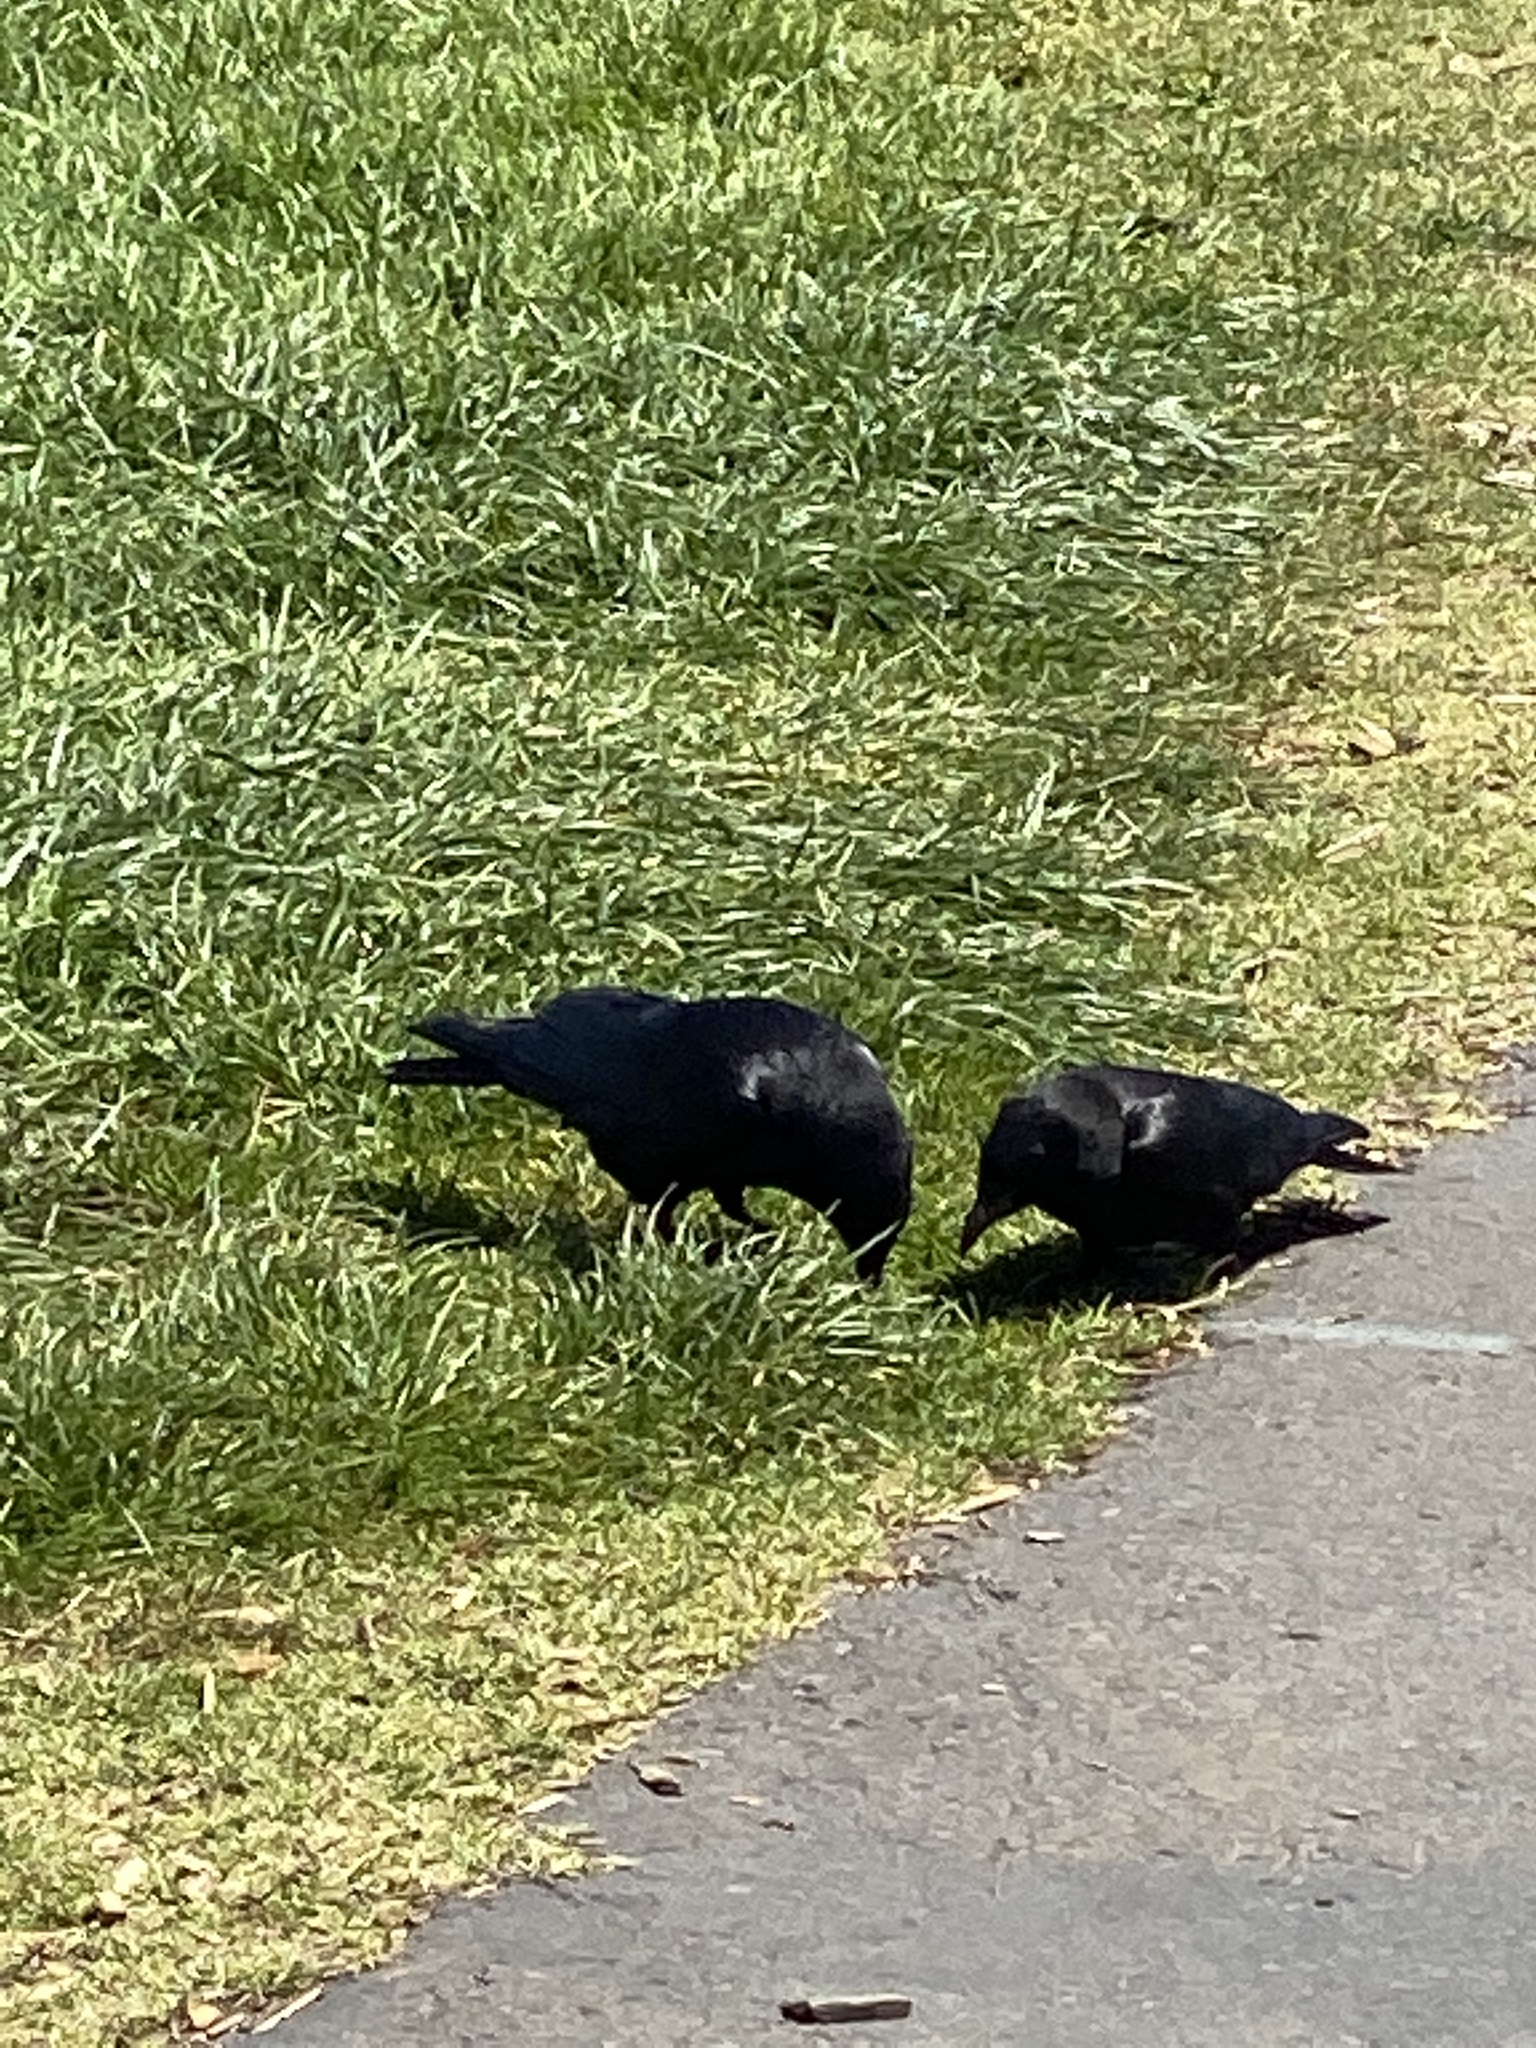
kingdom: Animalia
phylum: Chordata
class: Aves
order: Passeriformes
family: Corvidae
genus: Corvus
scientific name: Corvus brachyrhynchos
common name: American crow
